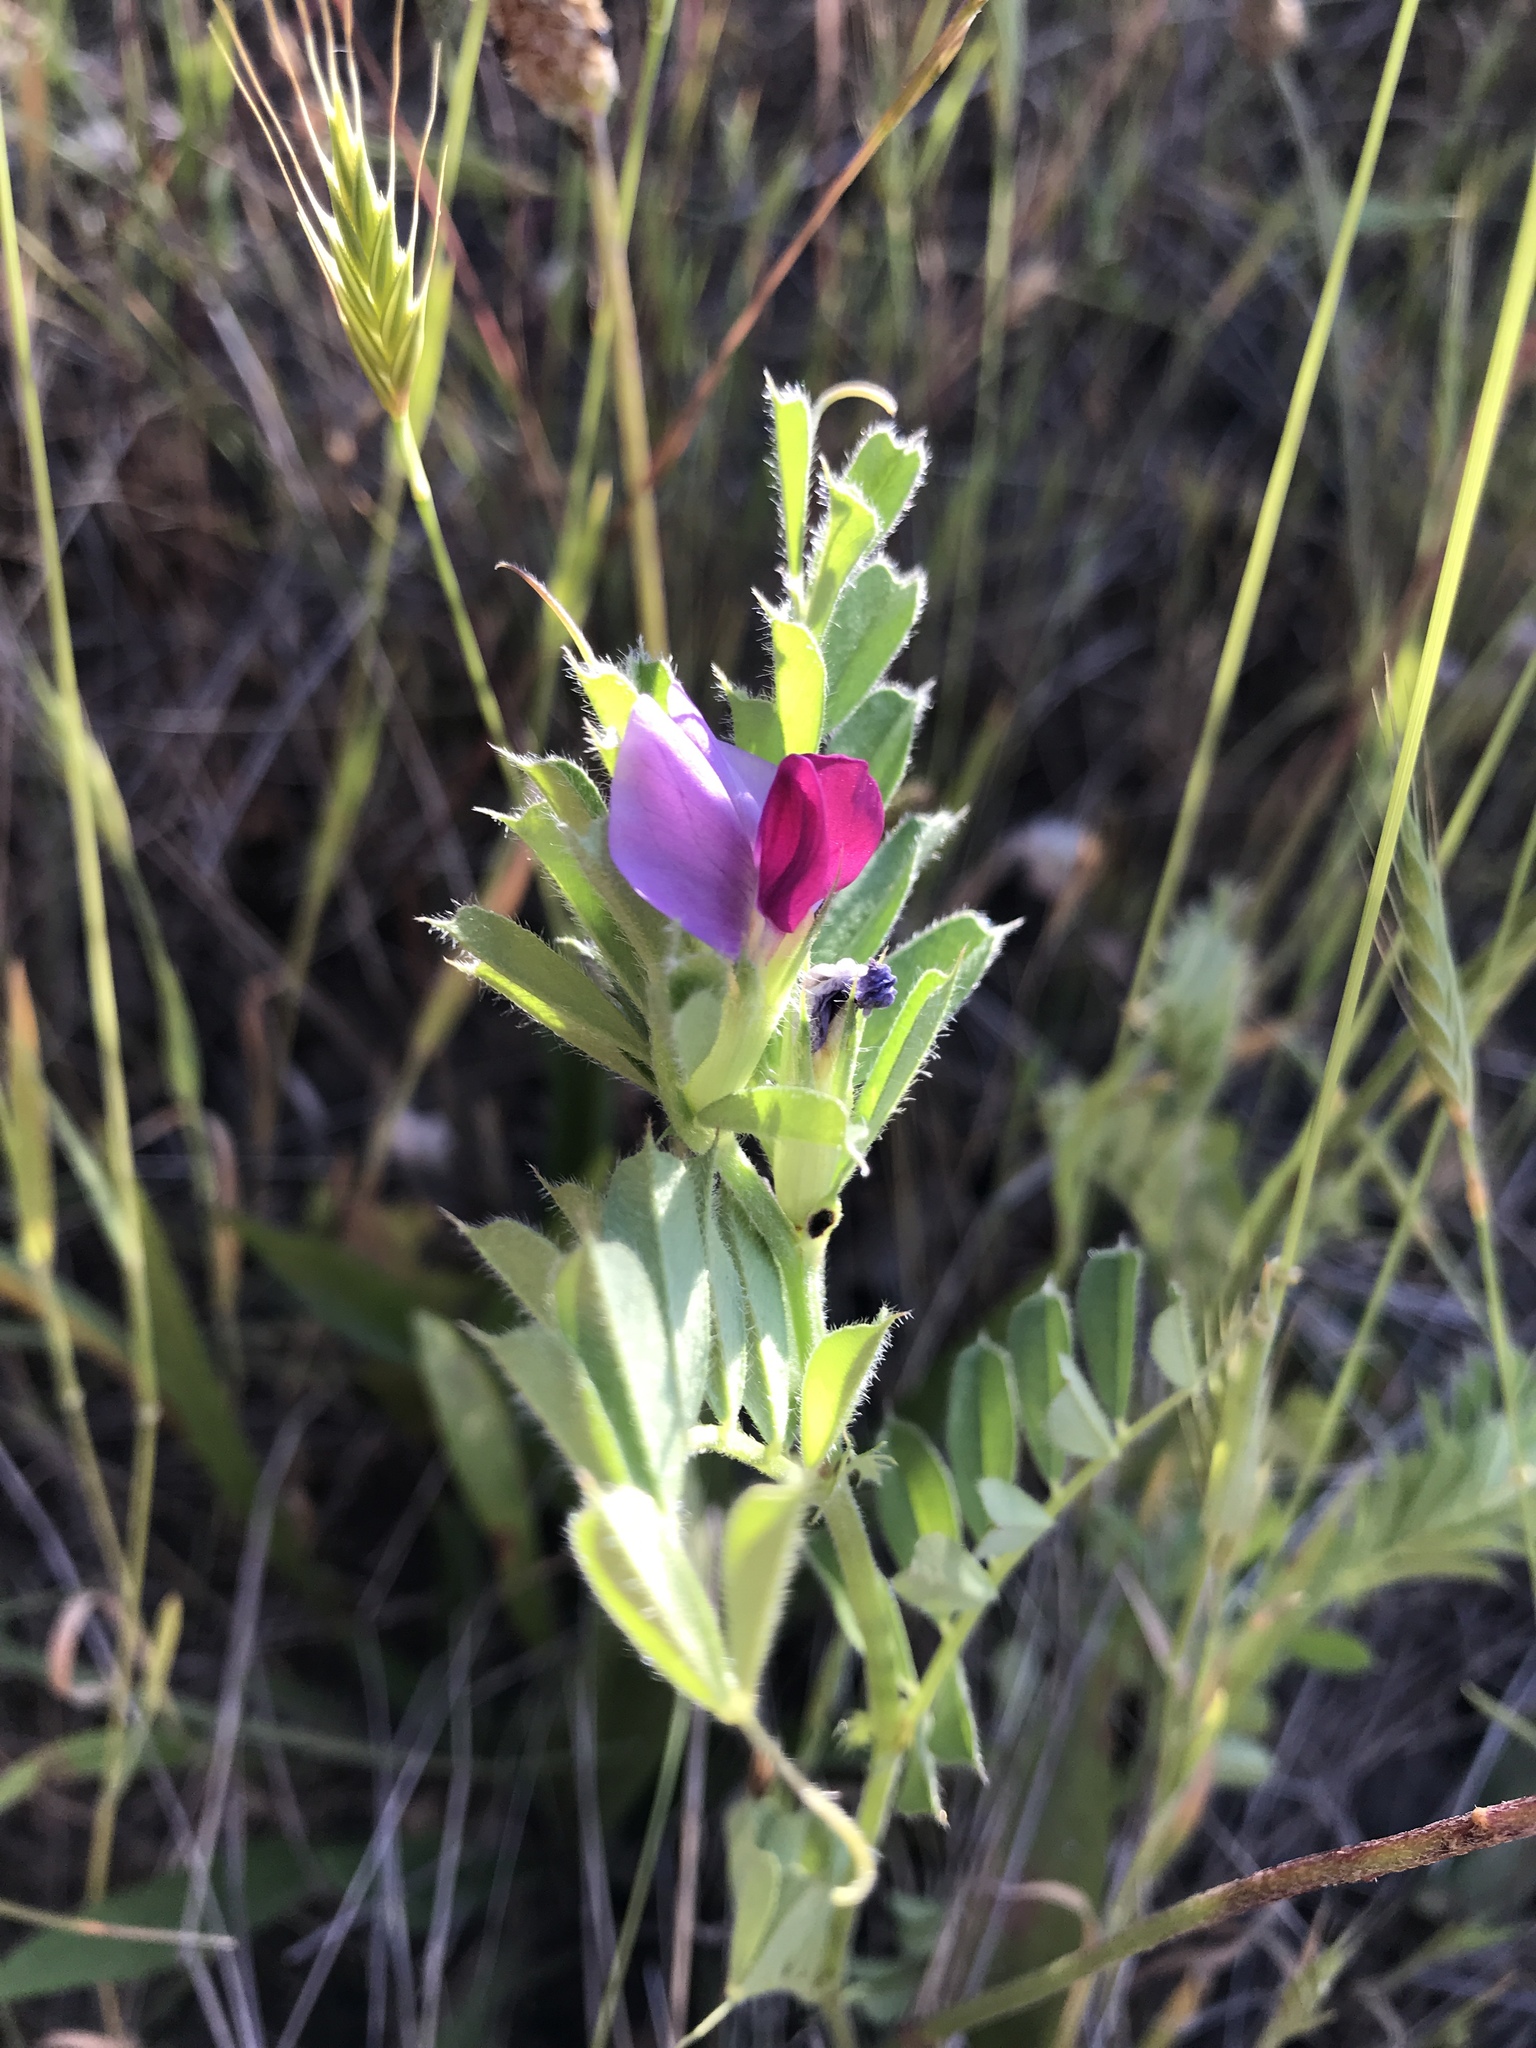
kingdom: Plantae
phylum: Tracheophyta
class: Magnoliopsida
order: Fabales
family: Fabaceae
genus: Vicia
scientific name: Vicia sativa
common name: Garden vetch
